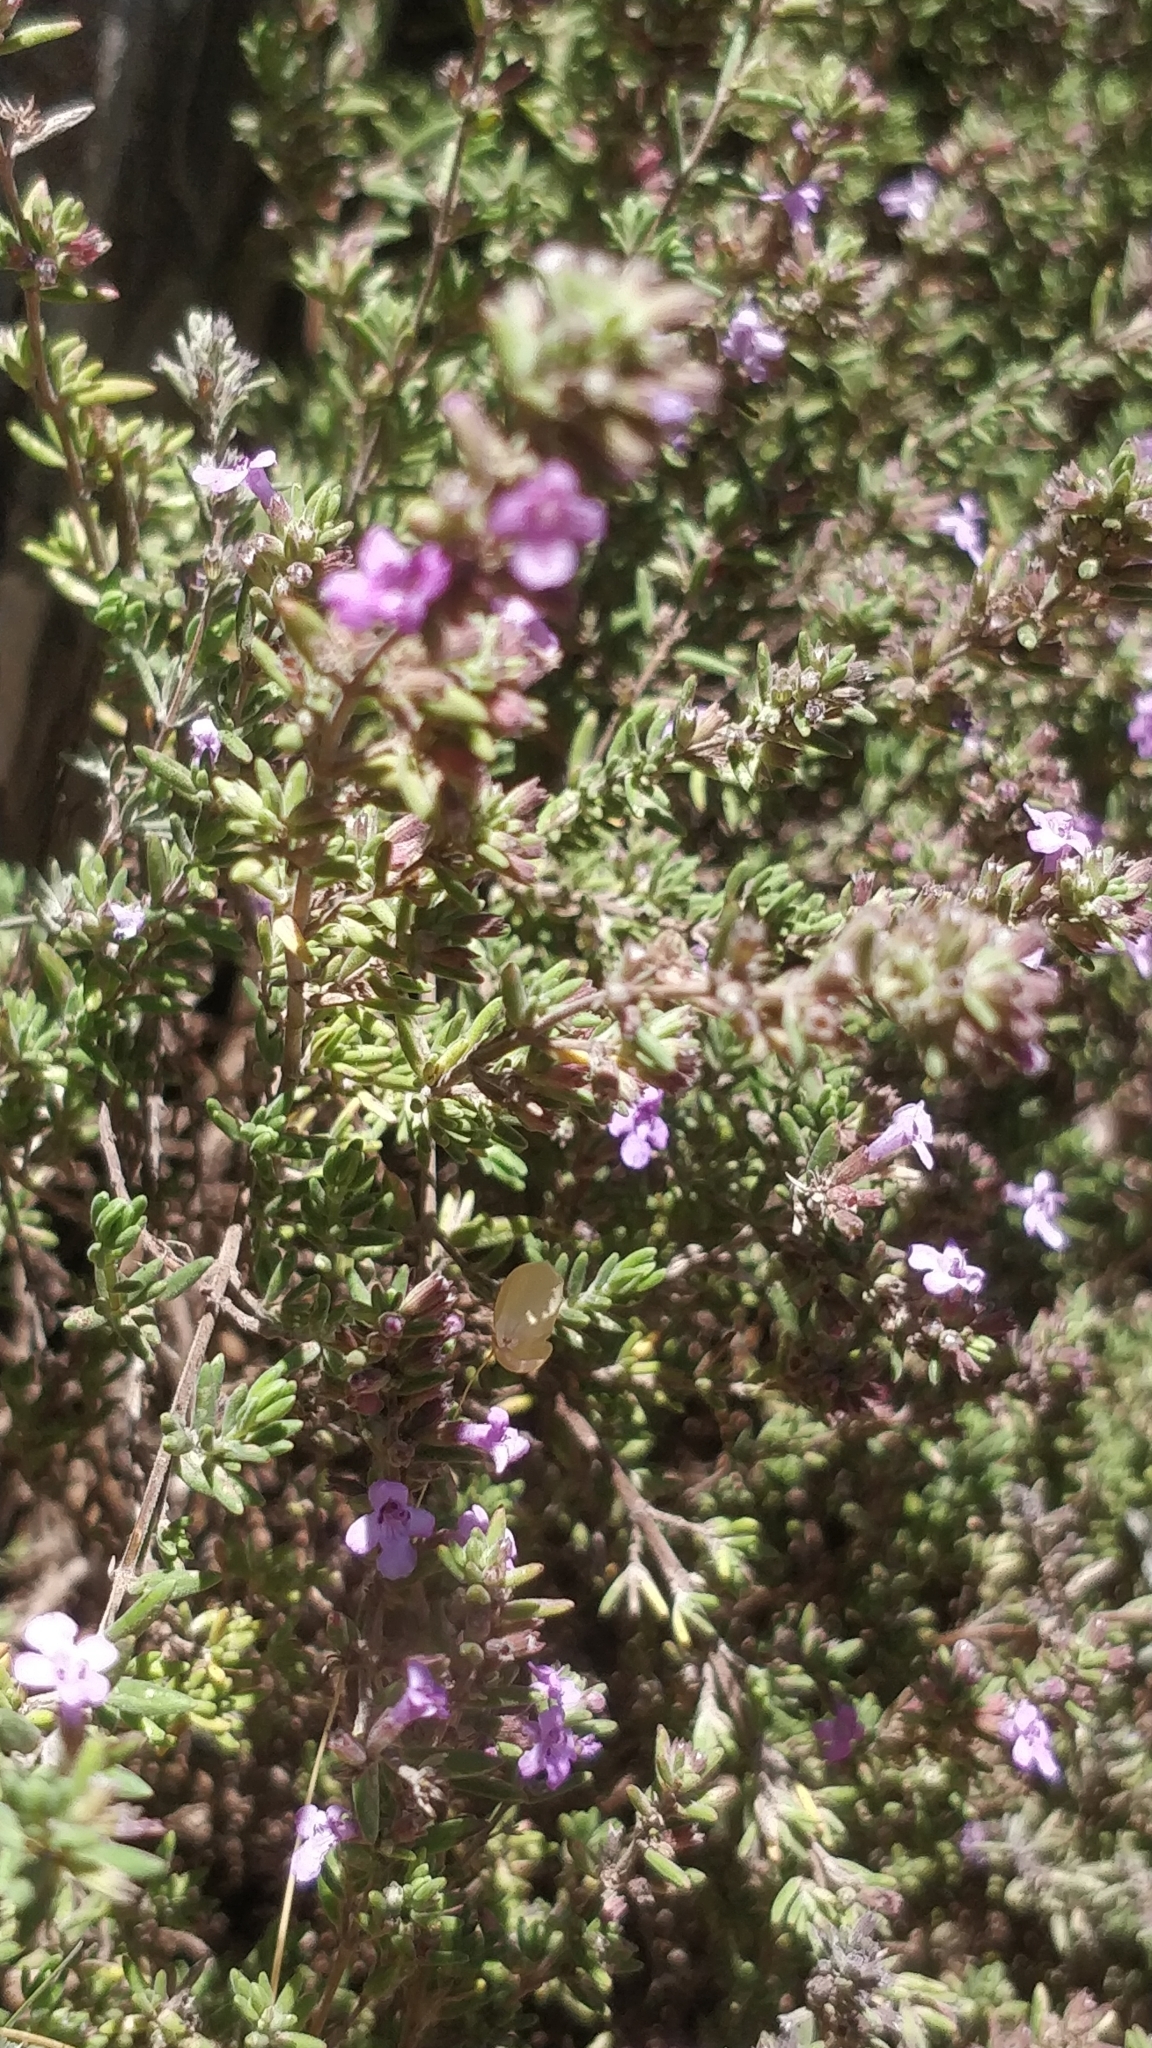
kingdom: Plantae
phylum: Tracheophyta
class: Magnoliopsida
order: Lamiales
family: Lamiaceae
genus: Micromeria
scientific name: Micromeria maderensis
